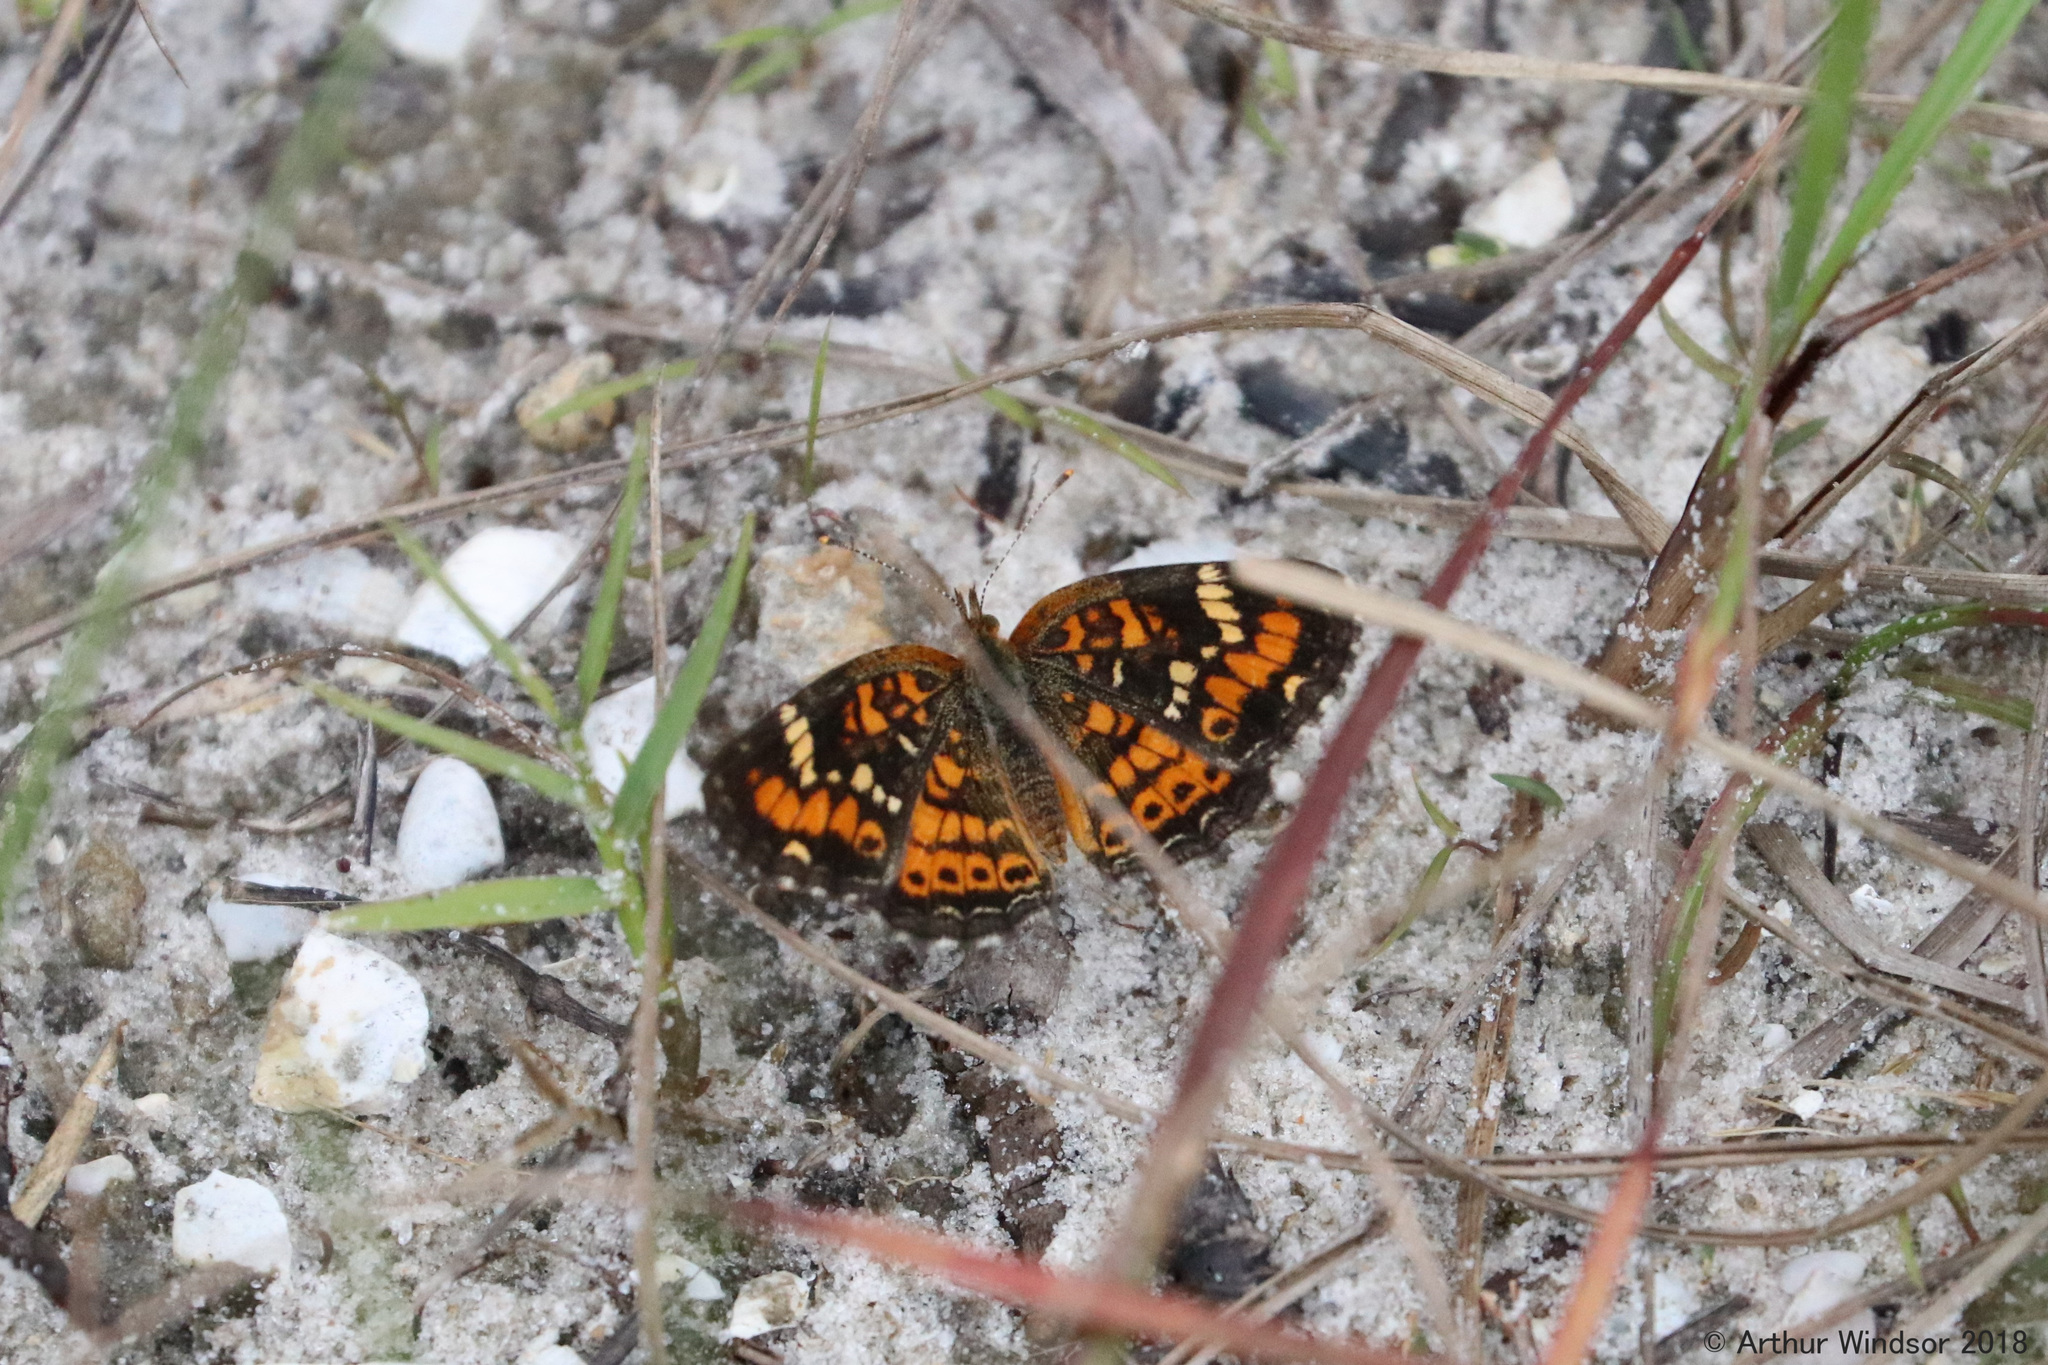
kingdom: Animalia
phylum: Arthropoda
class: Insecta
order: Lepidoptera
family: Nymphalidae
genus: Phyciodes
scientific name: Phyciodes phaon
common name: Phaon crescent
